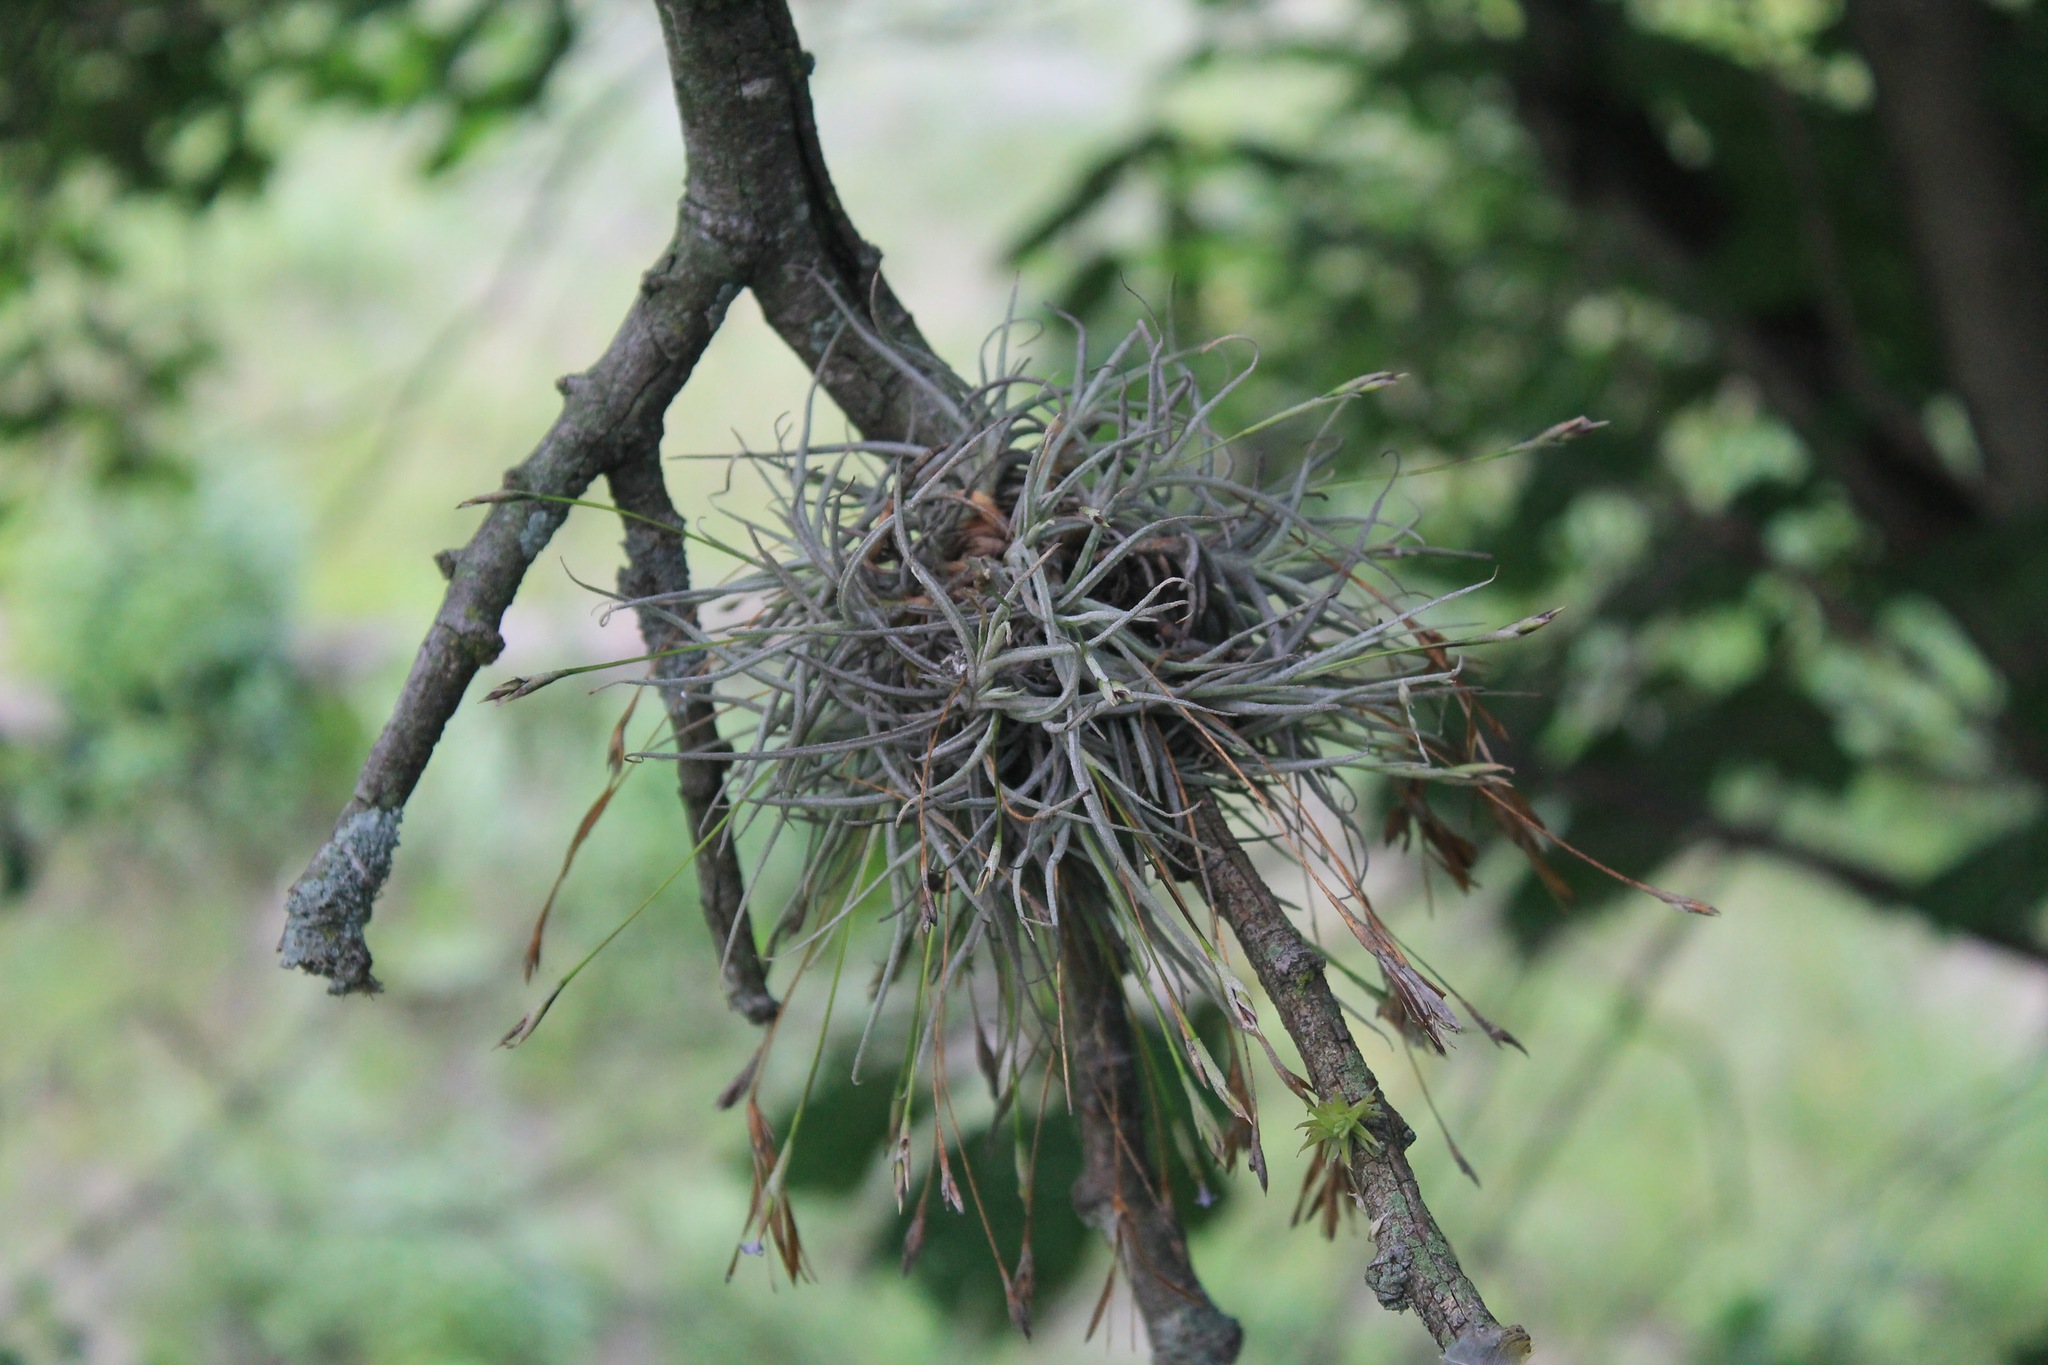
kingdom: Plantae
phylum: Tracheophyta
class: Liliopsida
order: Poales
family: Bromeliaceae
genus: Tillandsia
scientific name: Tillandsia recurvata
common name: Small ballmoss
